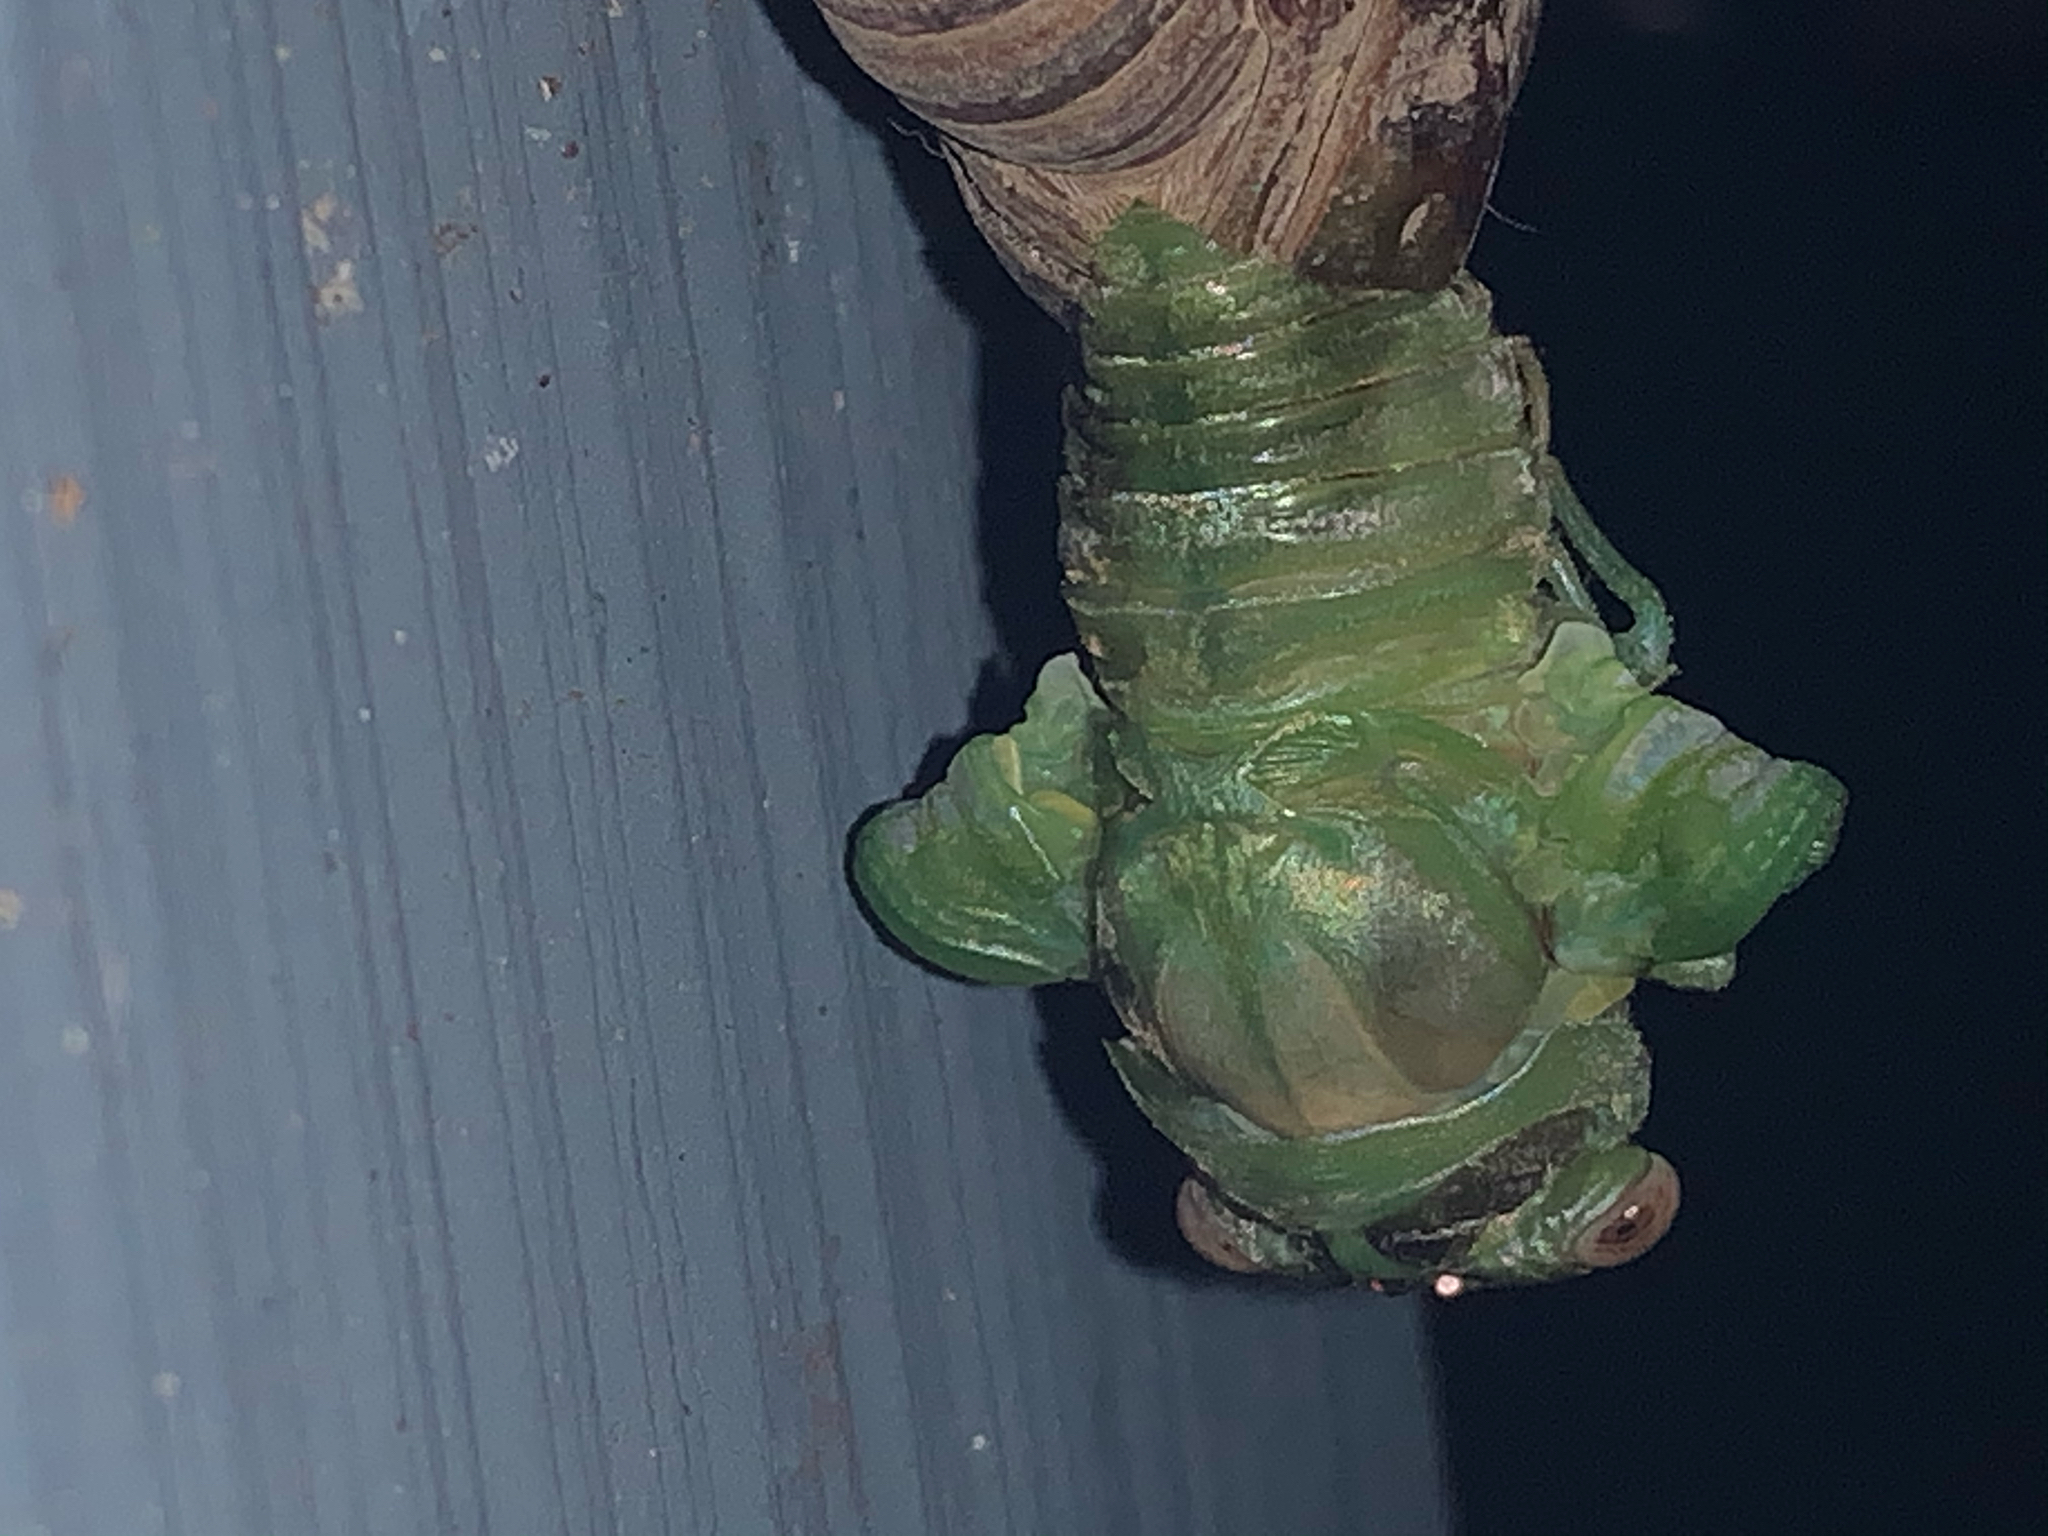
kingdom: Animalia
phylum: Arthropoda
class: Insecta
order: Hemiptera
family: Cicadidae
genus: Diceroprocta
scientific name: Diceroprocta grossa
